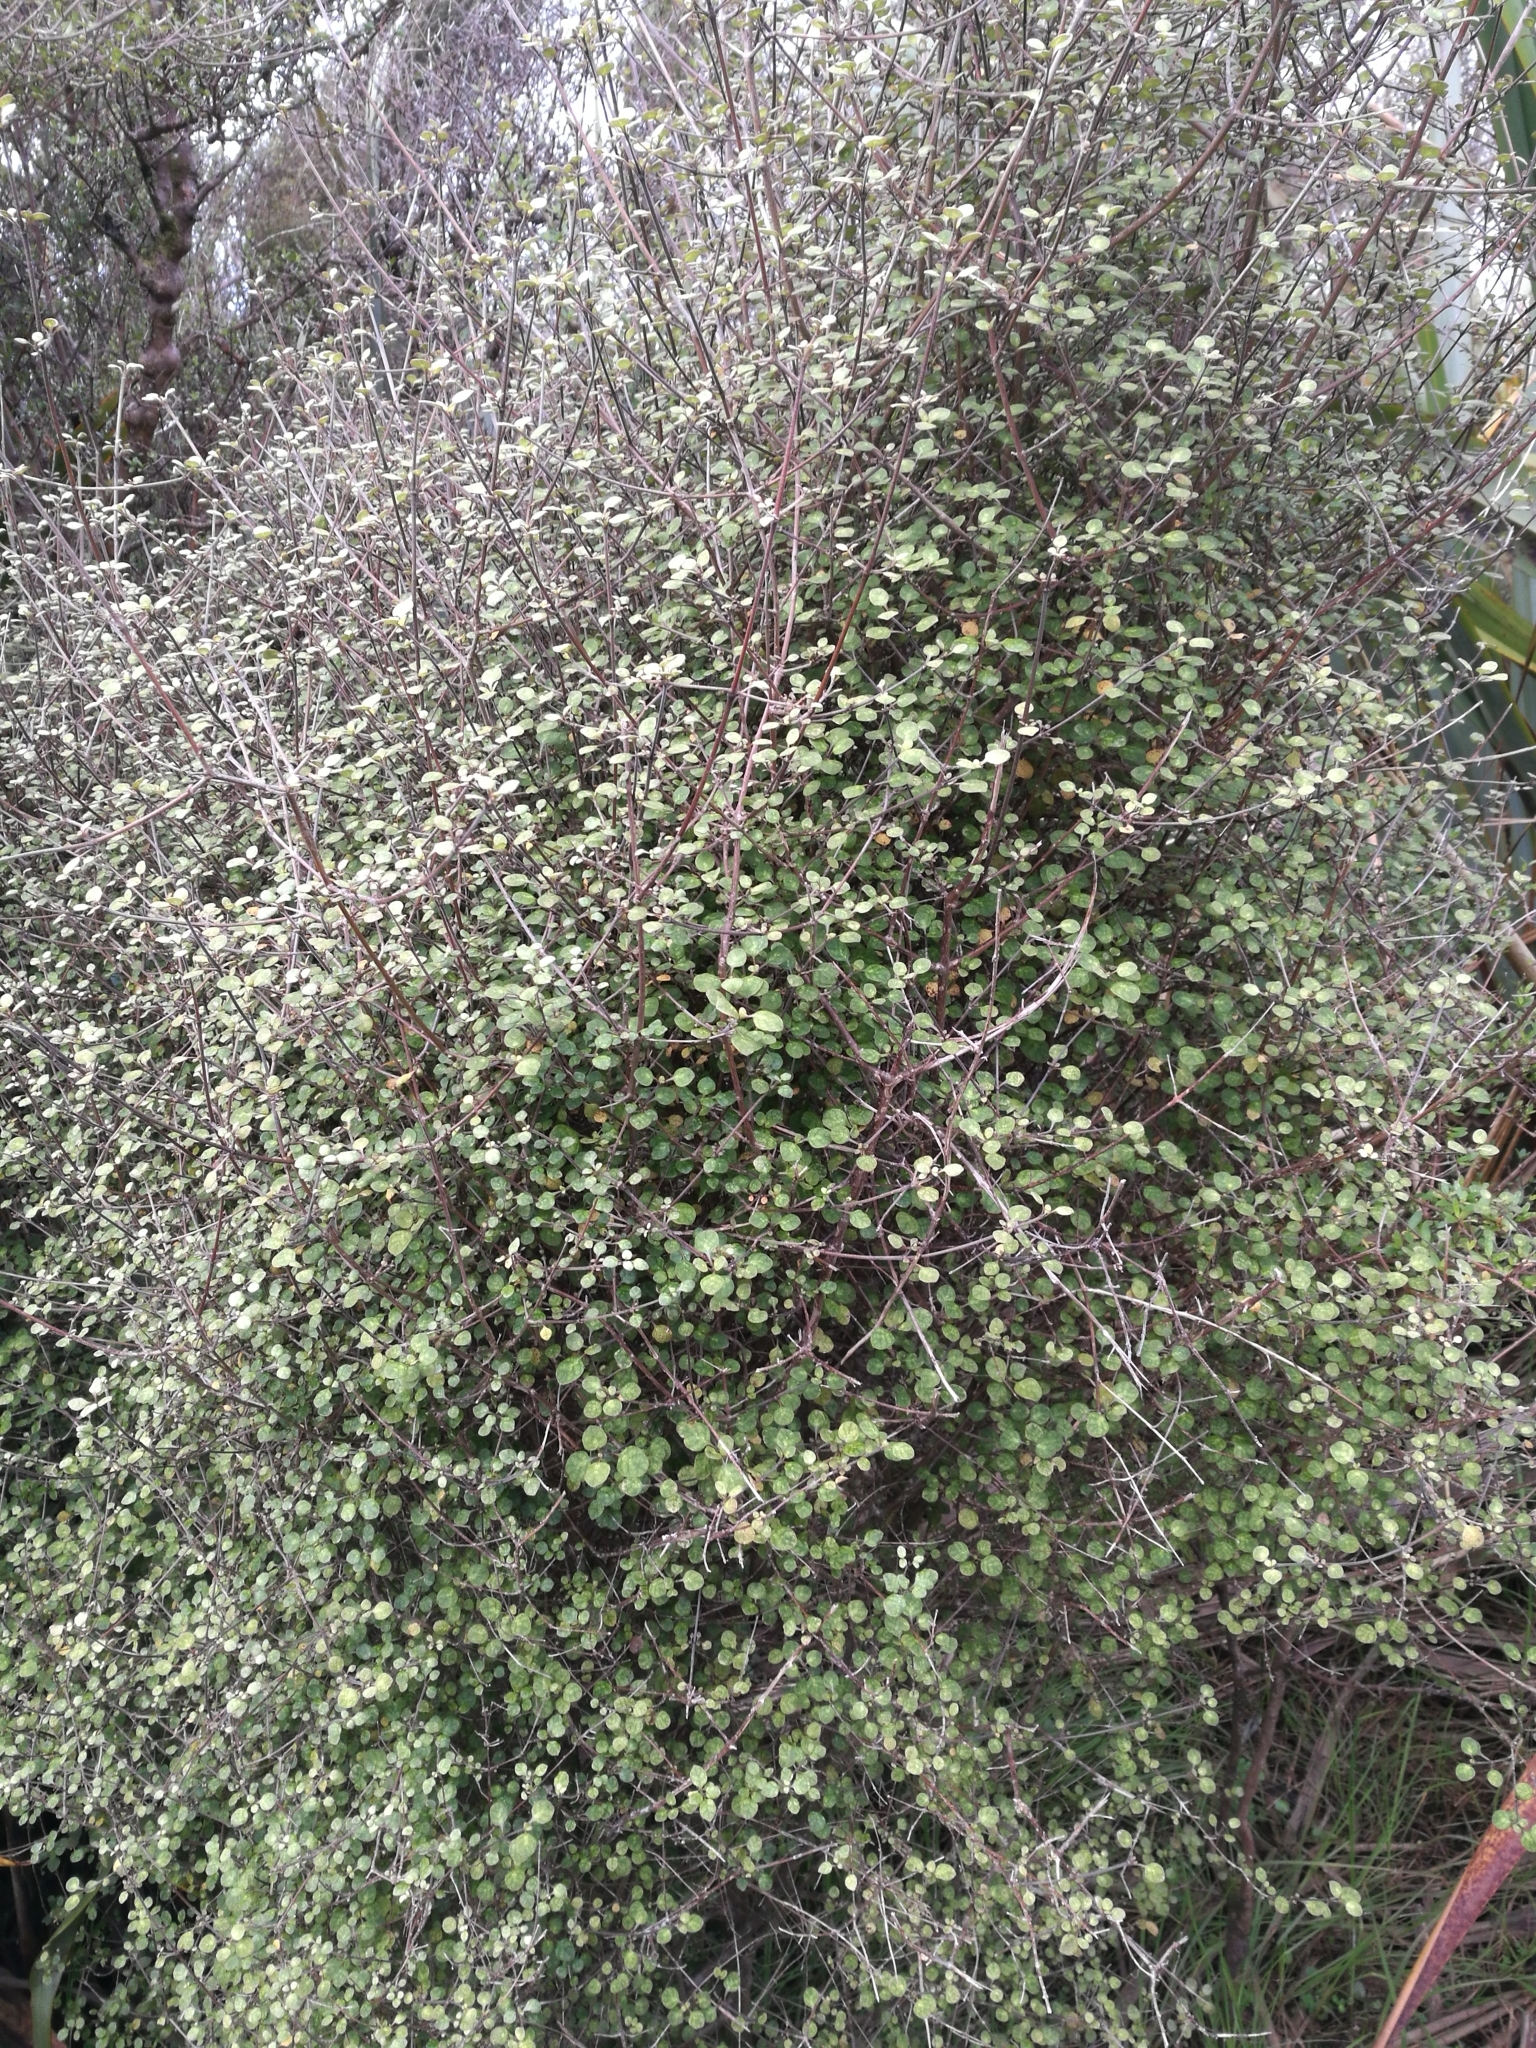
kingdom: Plantae
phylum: Tracheophyta
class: Magnoliopsida
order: Gentianales
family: Rubiaceae
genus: Coprosma
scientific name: Coprosma tenuicaulis
